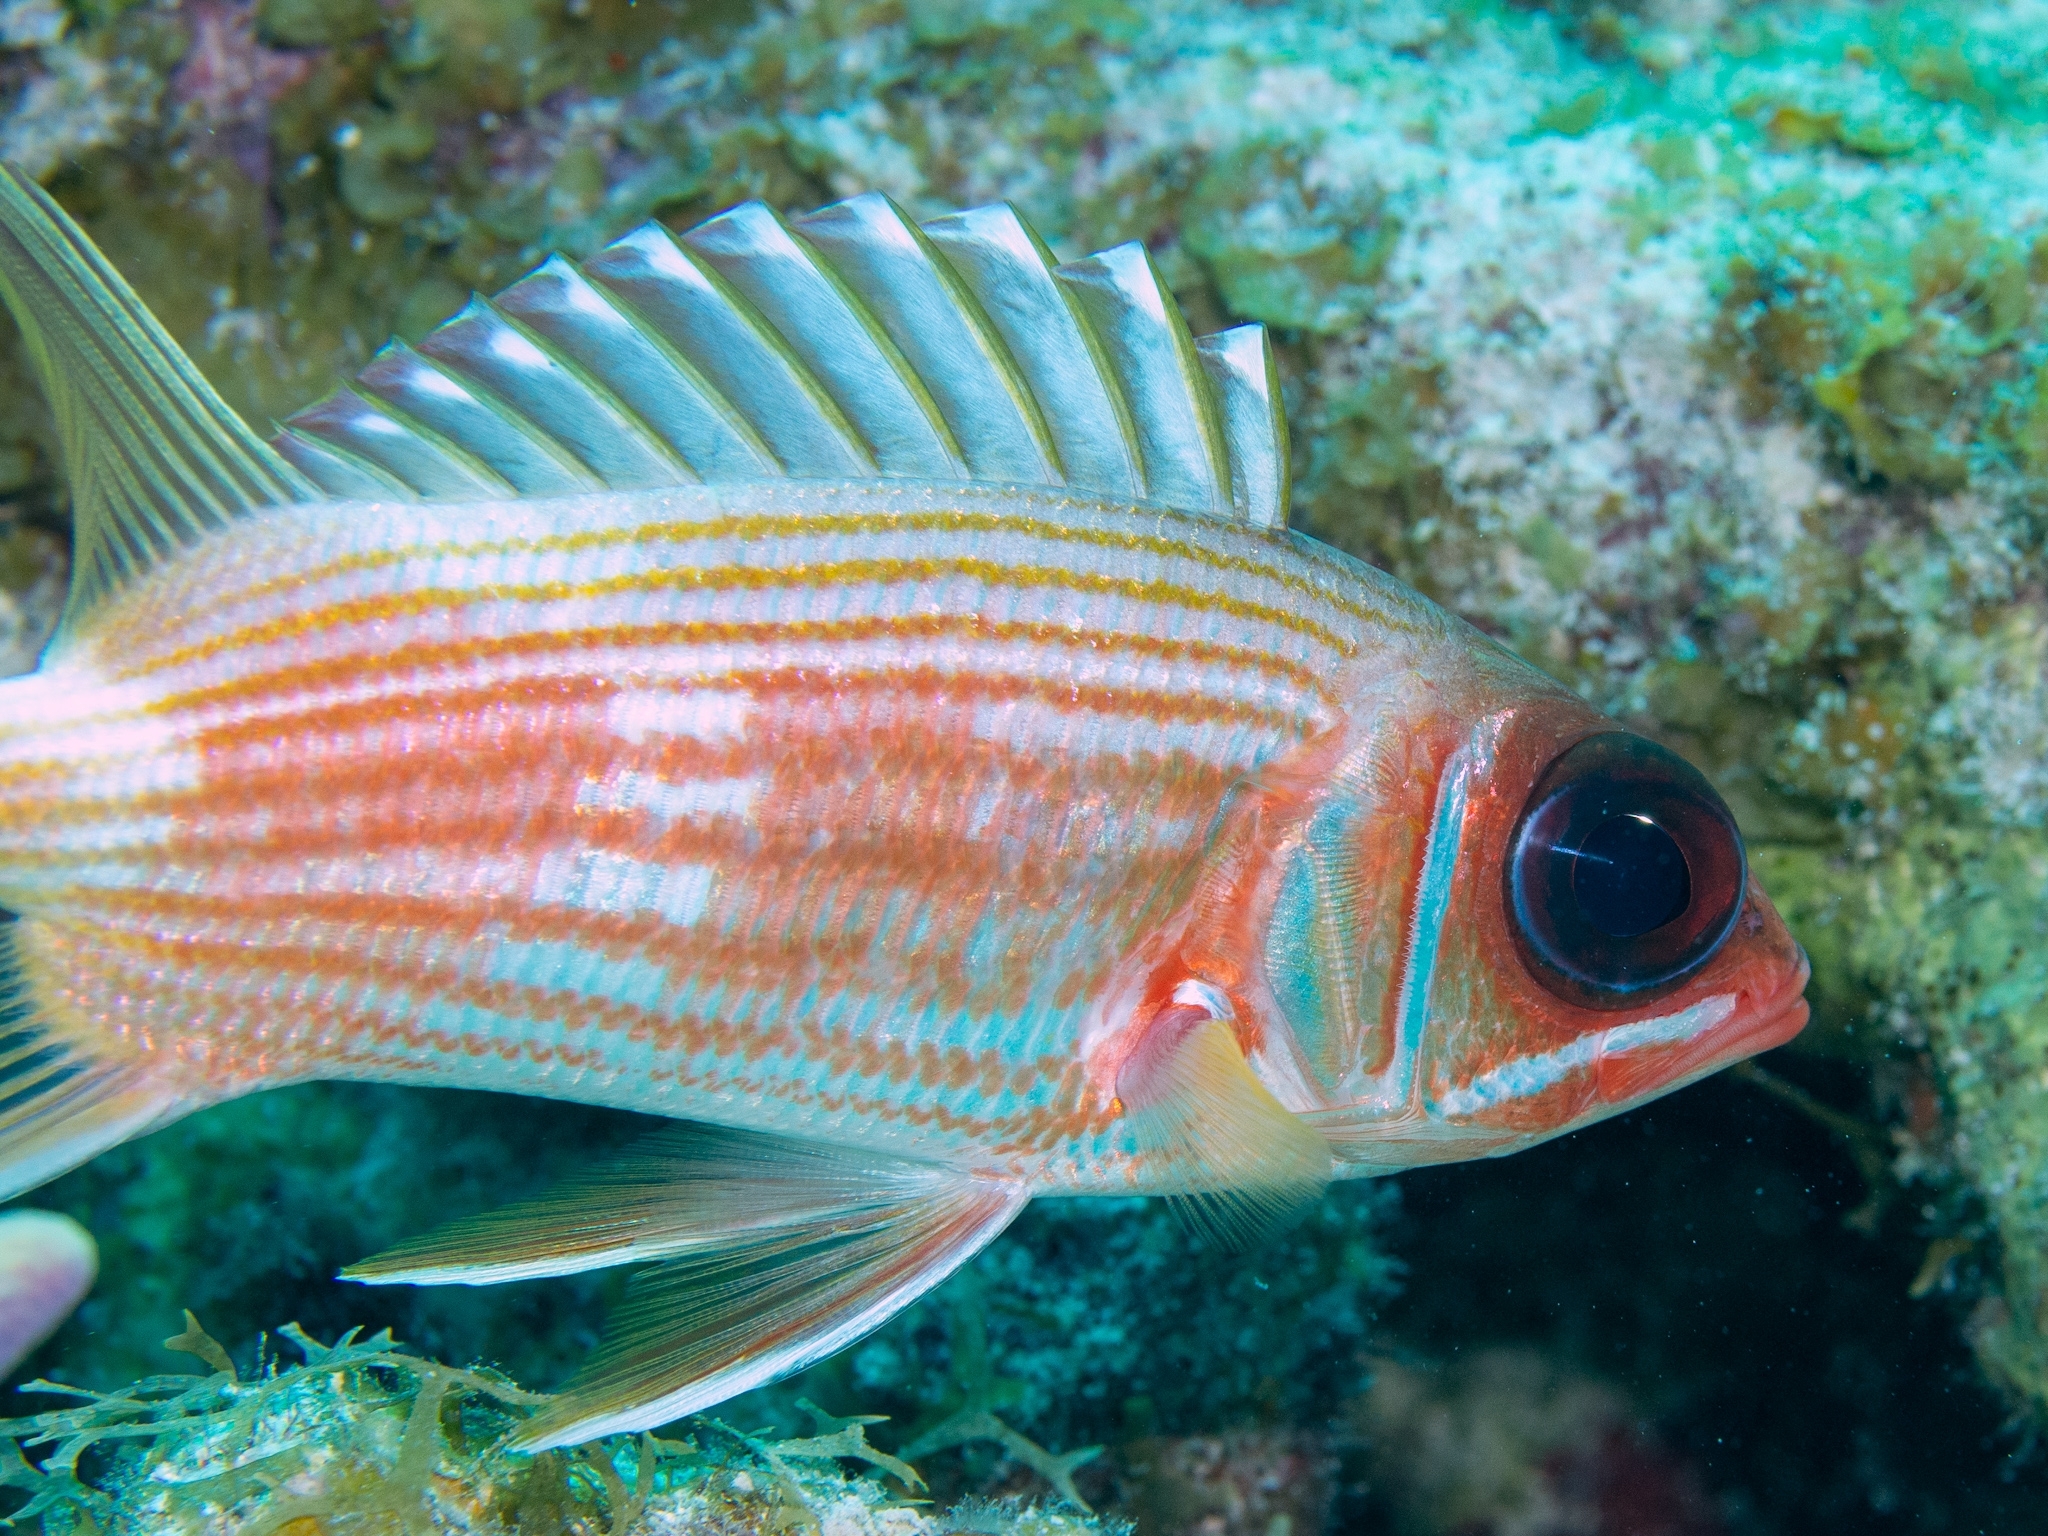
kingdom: Animalia
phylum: Chordata
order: Beryciformes
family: Holocentridae
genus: Holocentrus
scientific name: Holocentrus rufus
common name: Longspine squirrelfish
